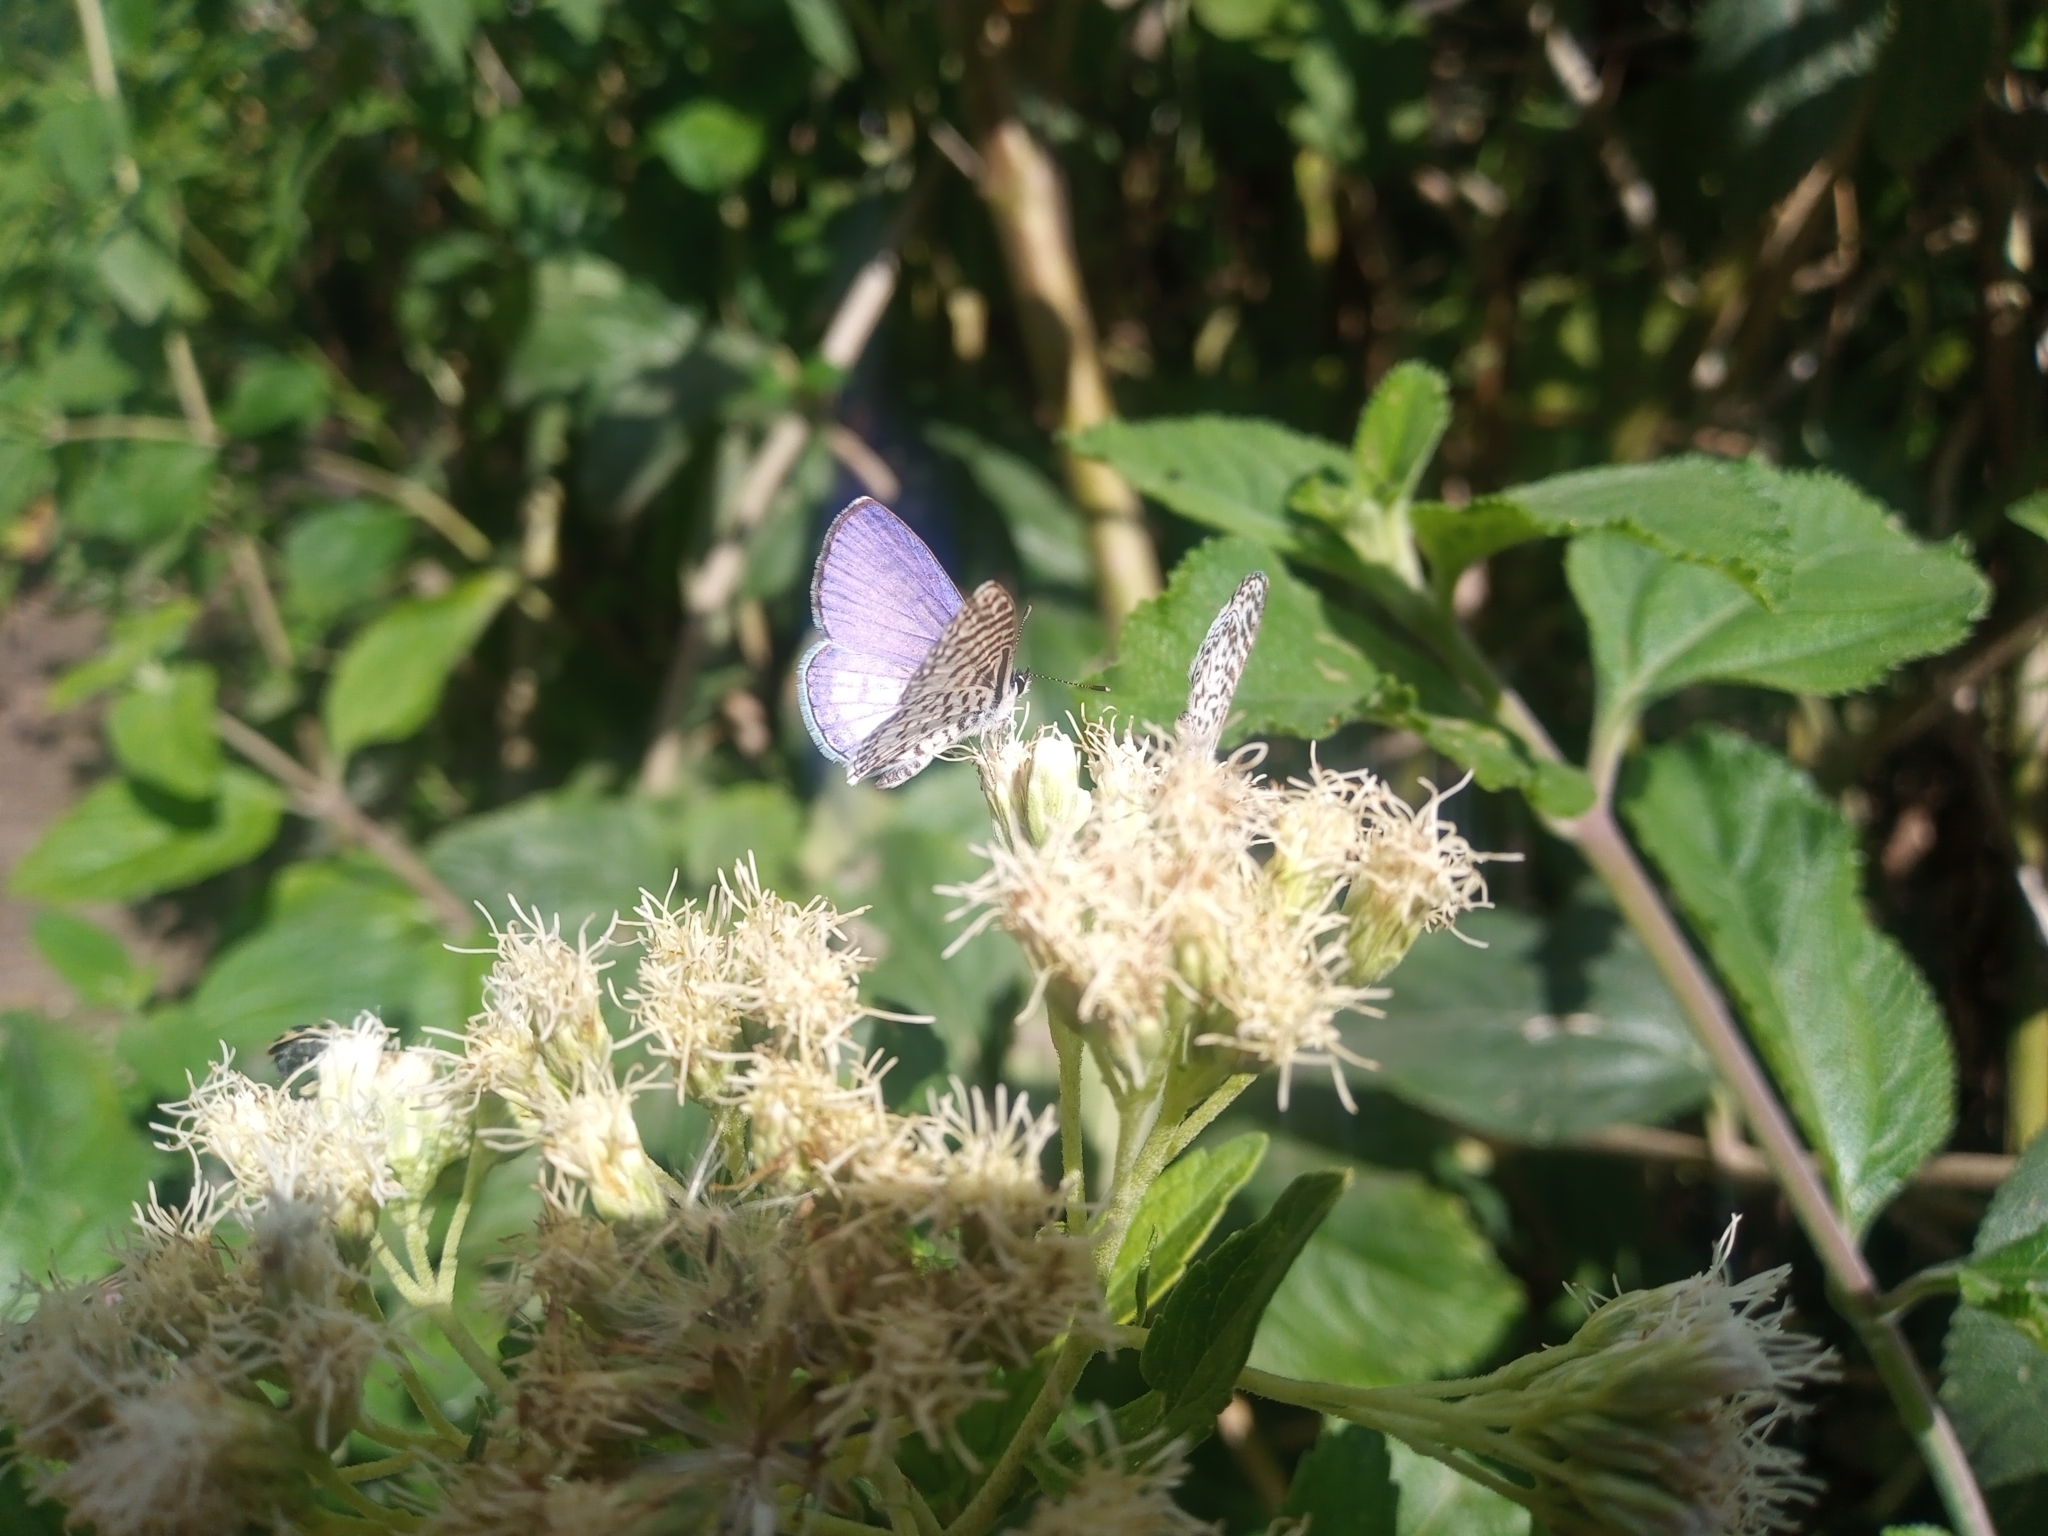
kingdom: Animalia
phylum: Arthropoda
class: Insecta
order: Lepidoptera
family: Lycaenidae
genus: Leptotes
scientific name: Leptotes cassius
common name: Cassius blue
